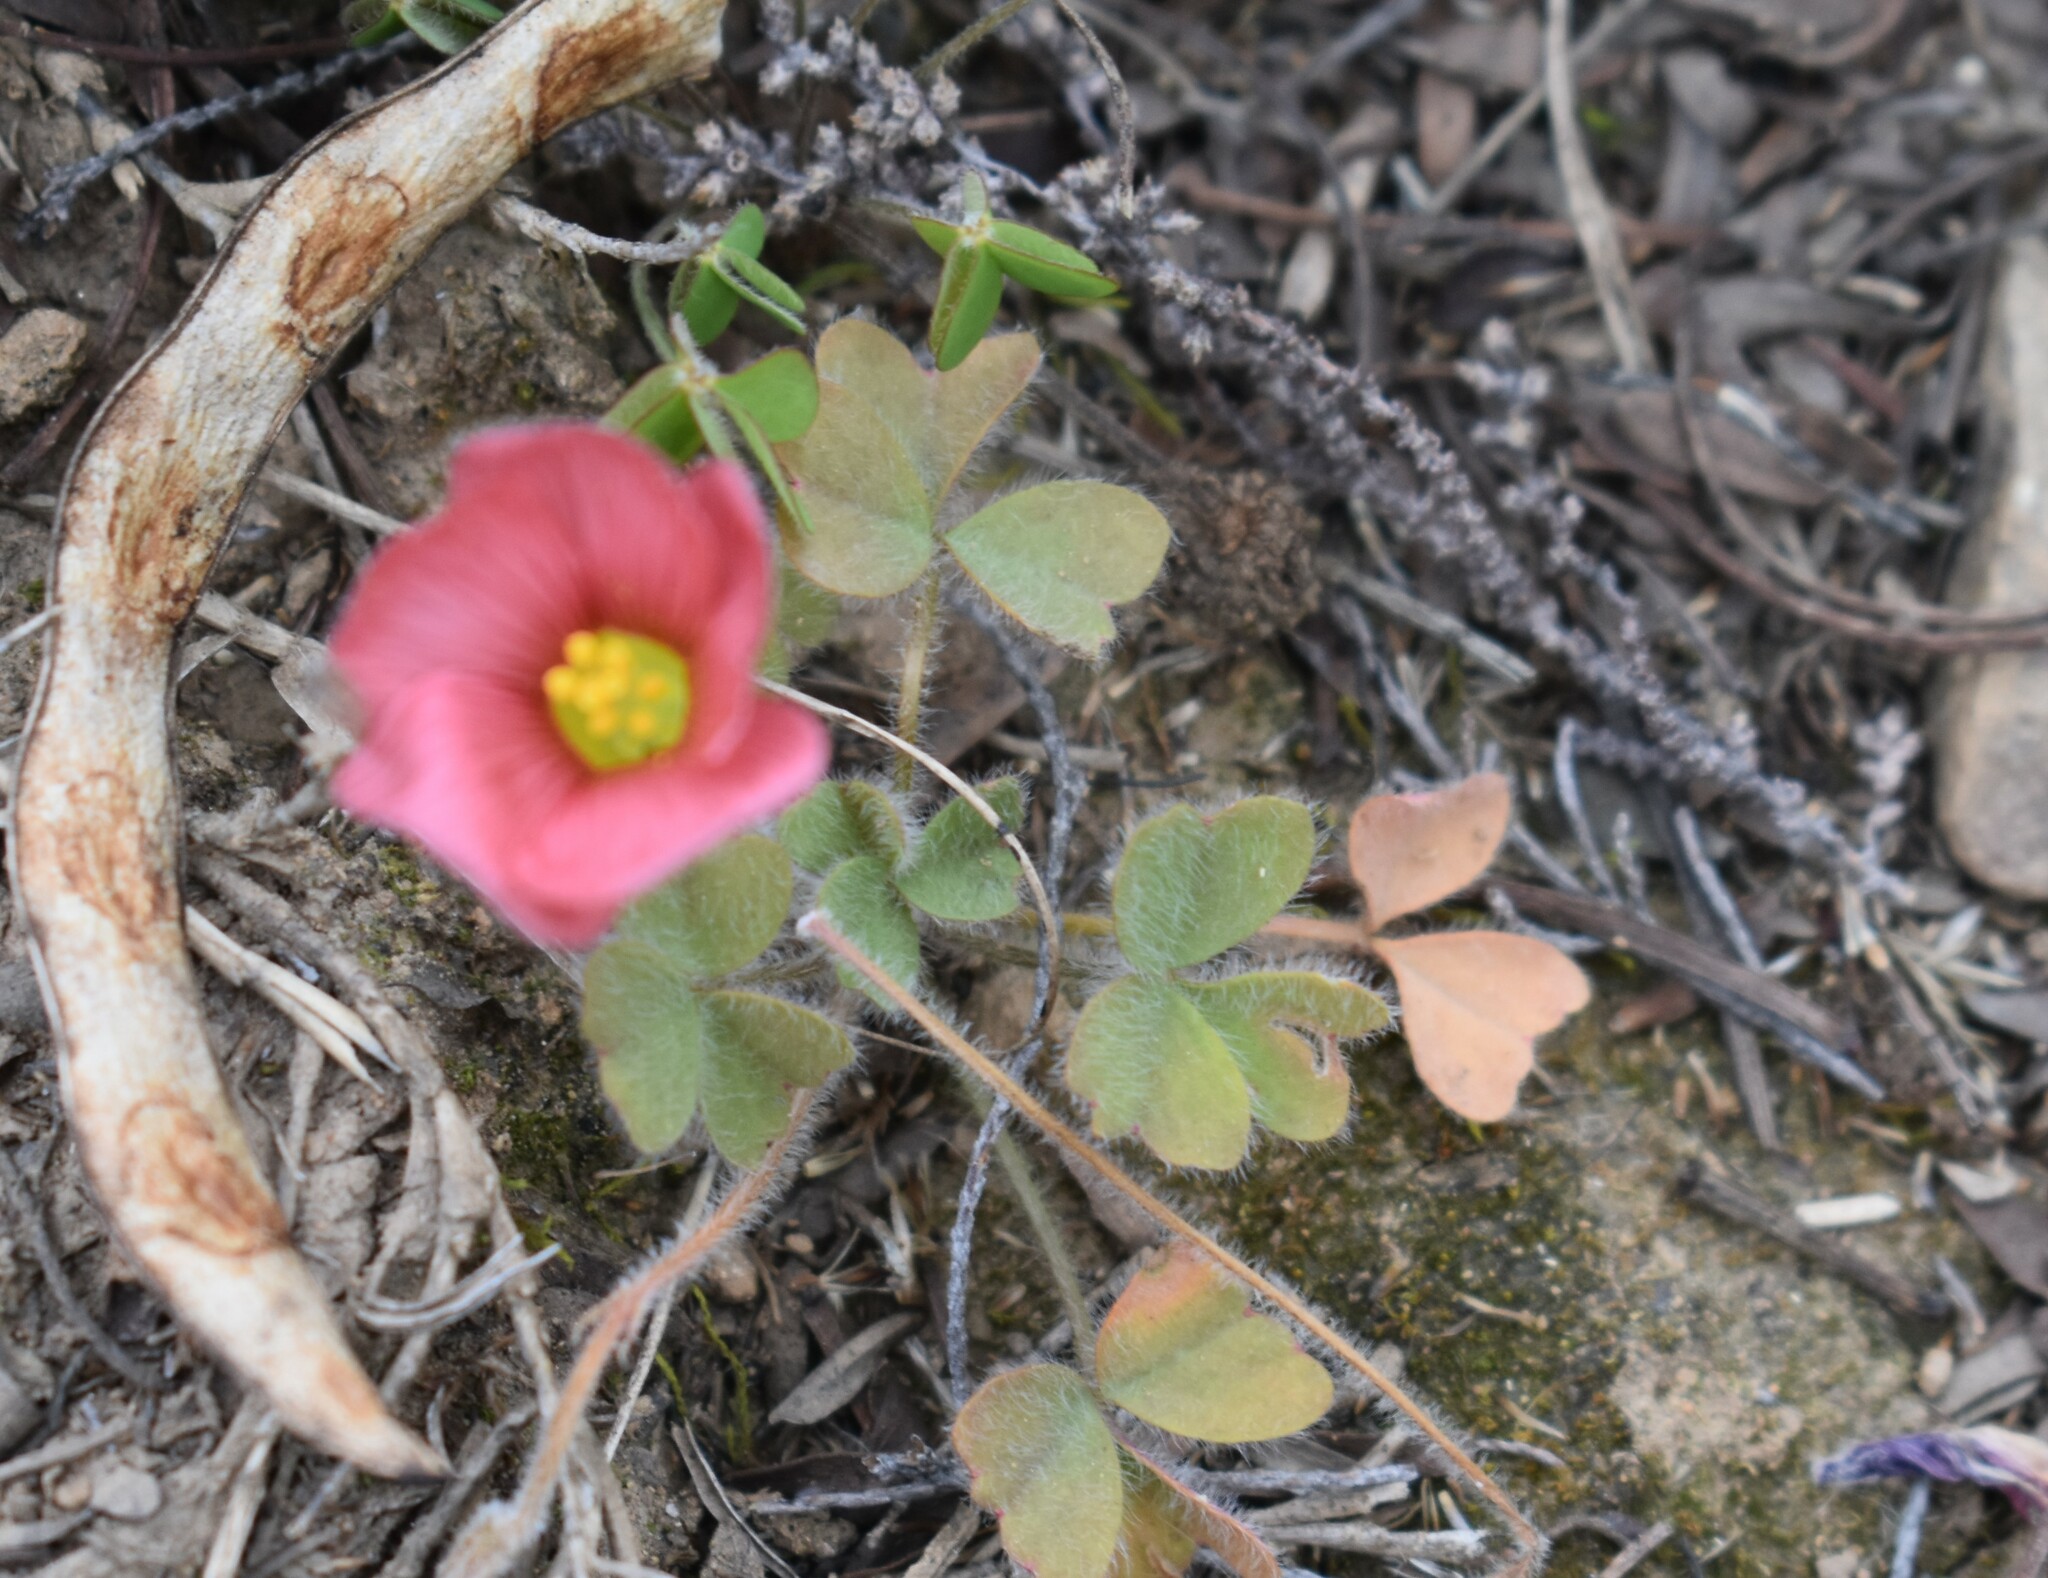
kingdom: Plantae
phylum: Tracheophyta
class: Magnoliopsida
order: Oxalidales
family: Oxalidaceae
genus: Oxalis
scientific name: Oxalis obtusa
